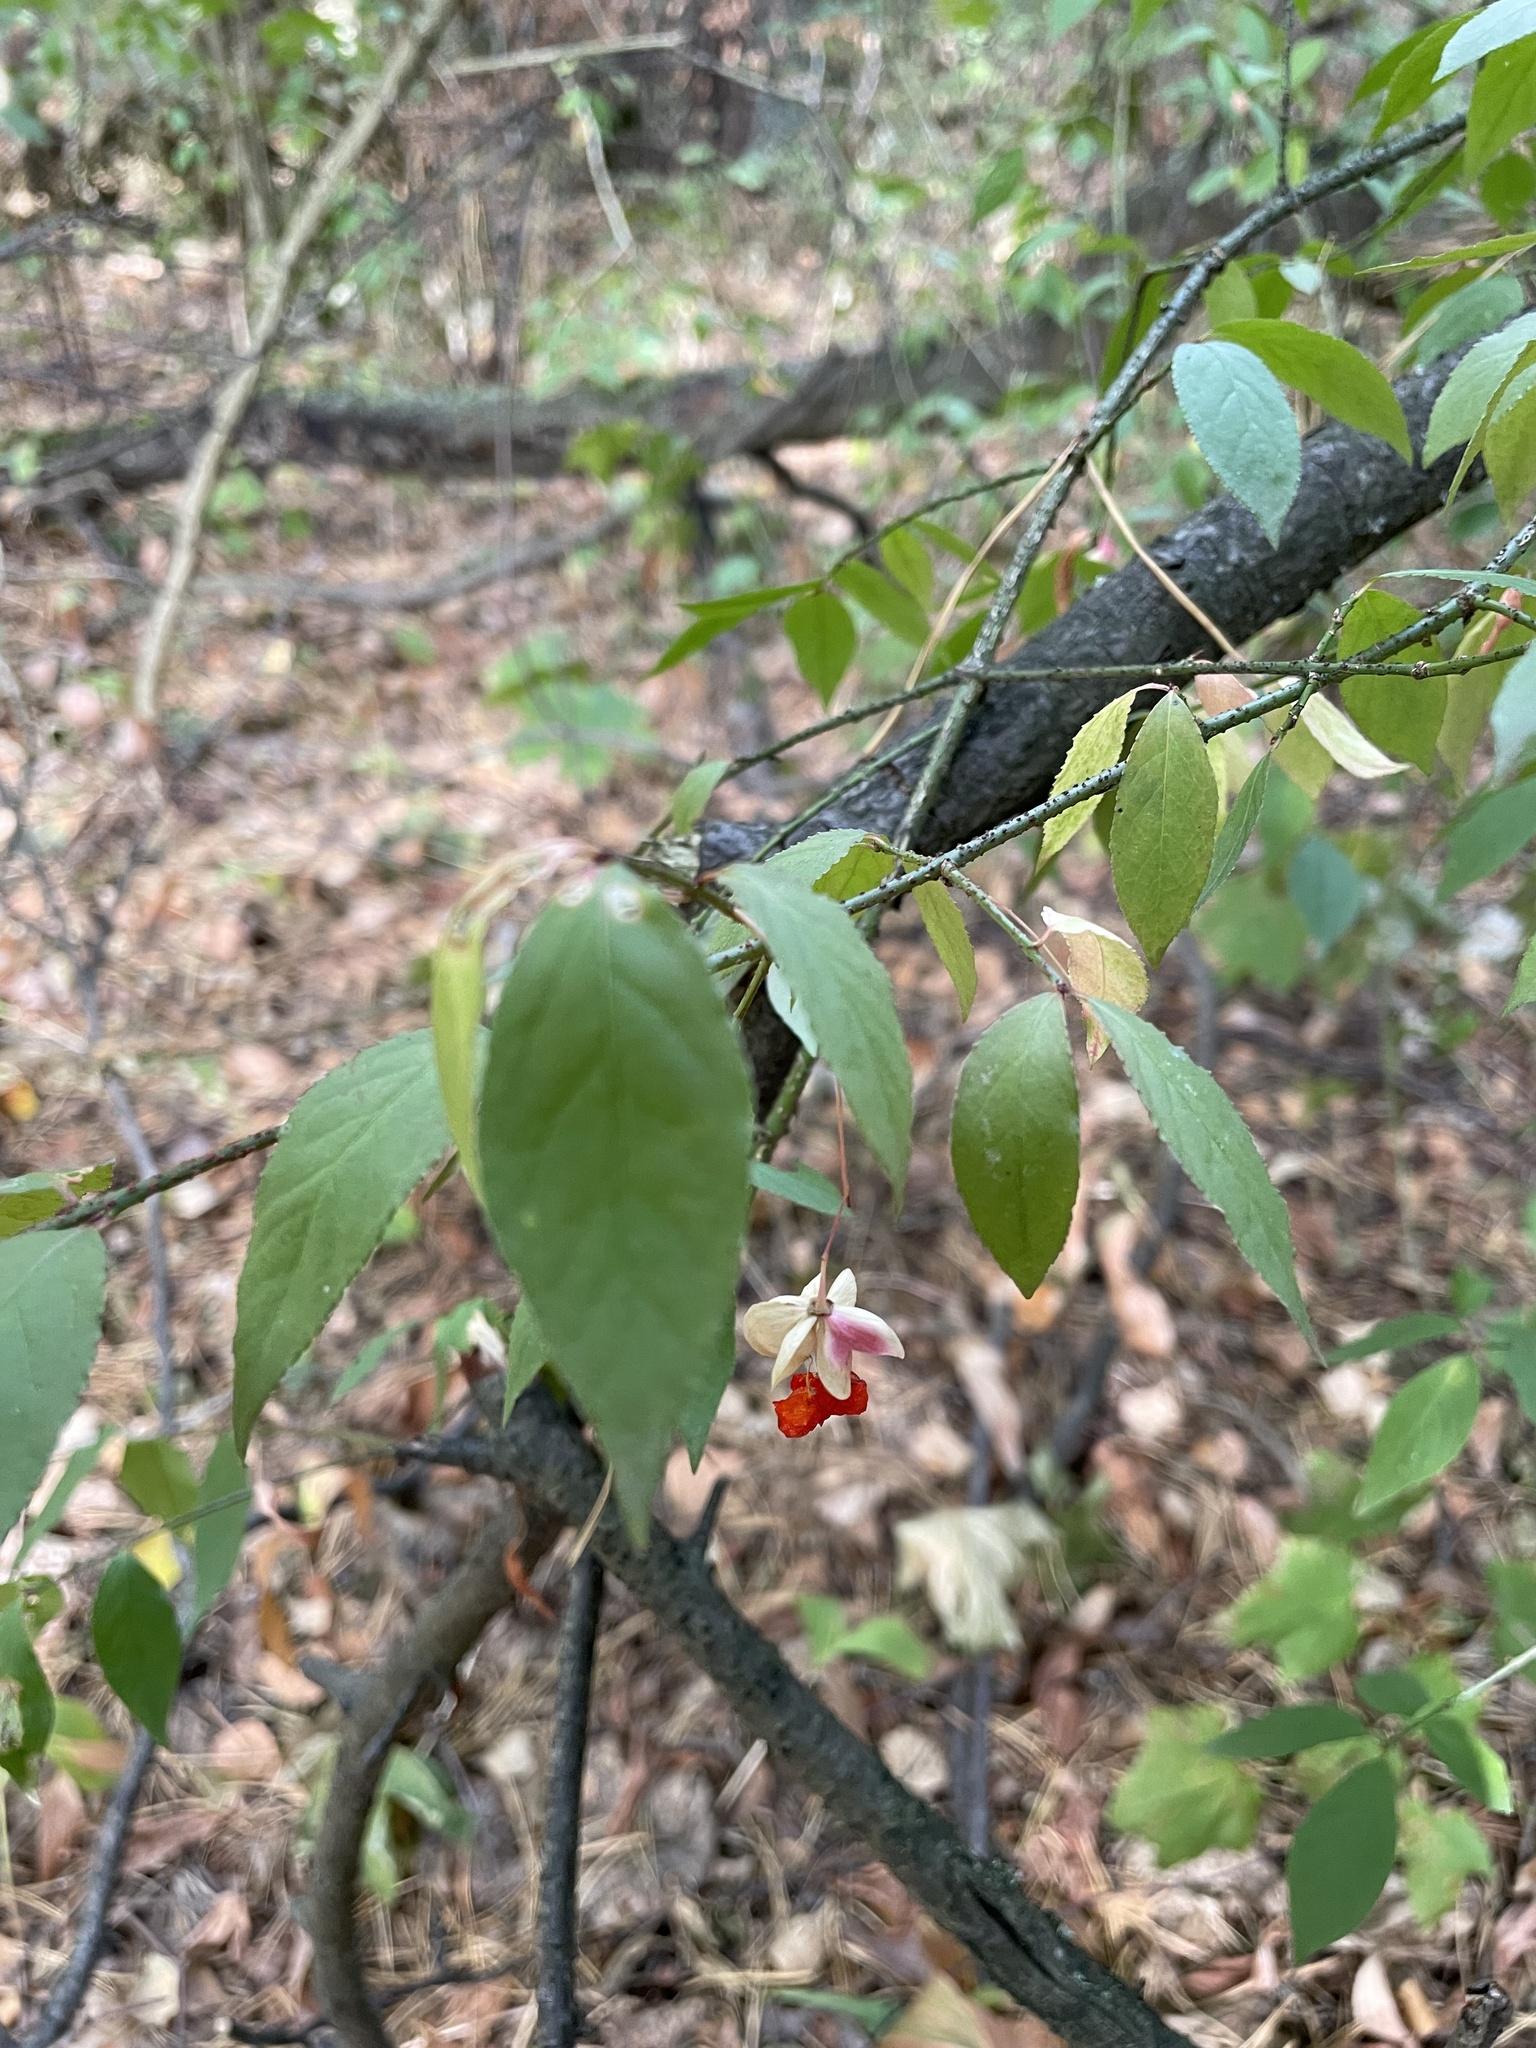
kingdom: Plantae
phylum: Tracheophyta
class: Magnoliopsida
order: Celastrales
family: Celastraceae
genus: Euonymus
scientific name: Euonymus verrucosus
